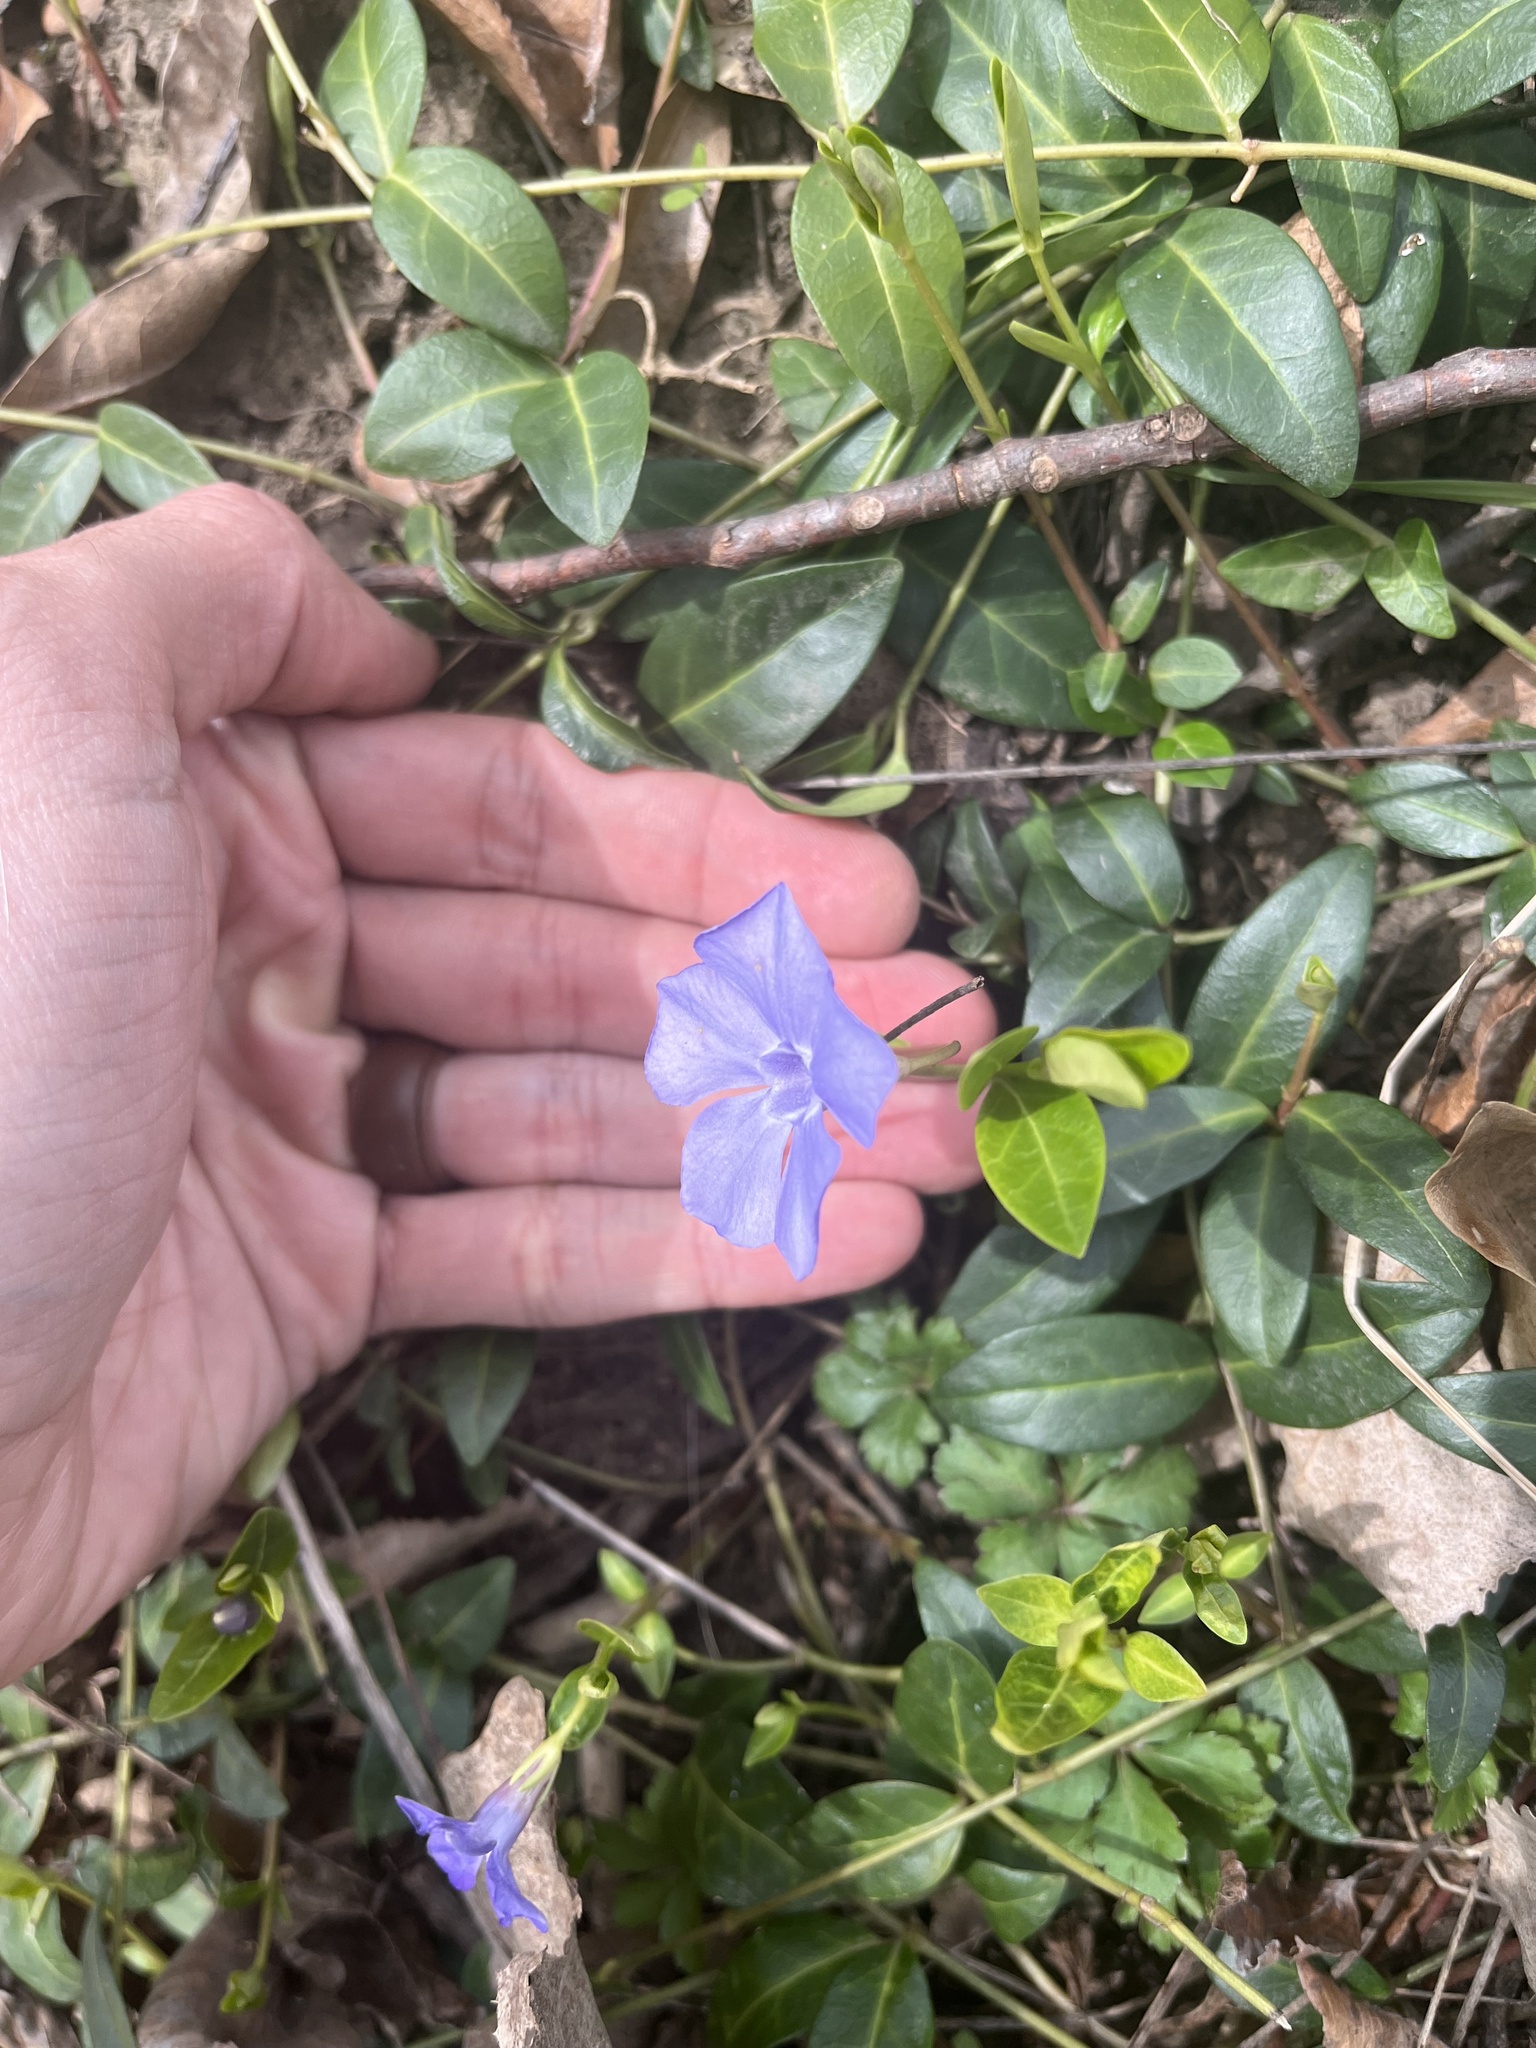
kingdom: Plantae
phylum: Tracheophyta
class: Magnoliopsida
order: Gentianales
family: Apocynaceae
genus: Vinca
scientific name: Vinca minor
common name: Lesser periwinkle
